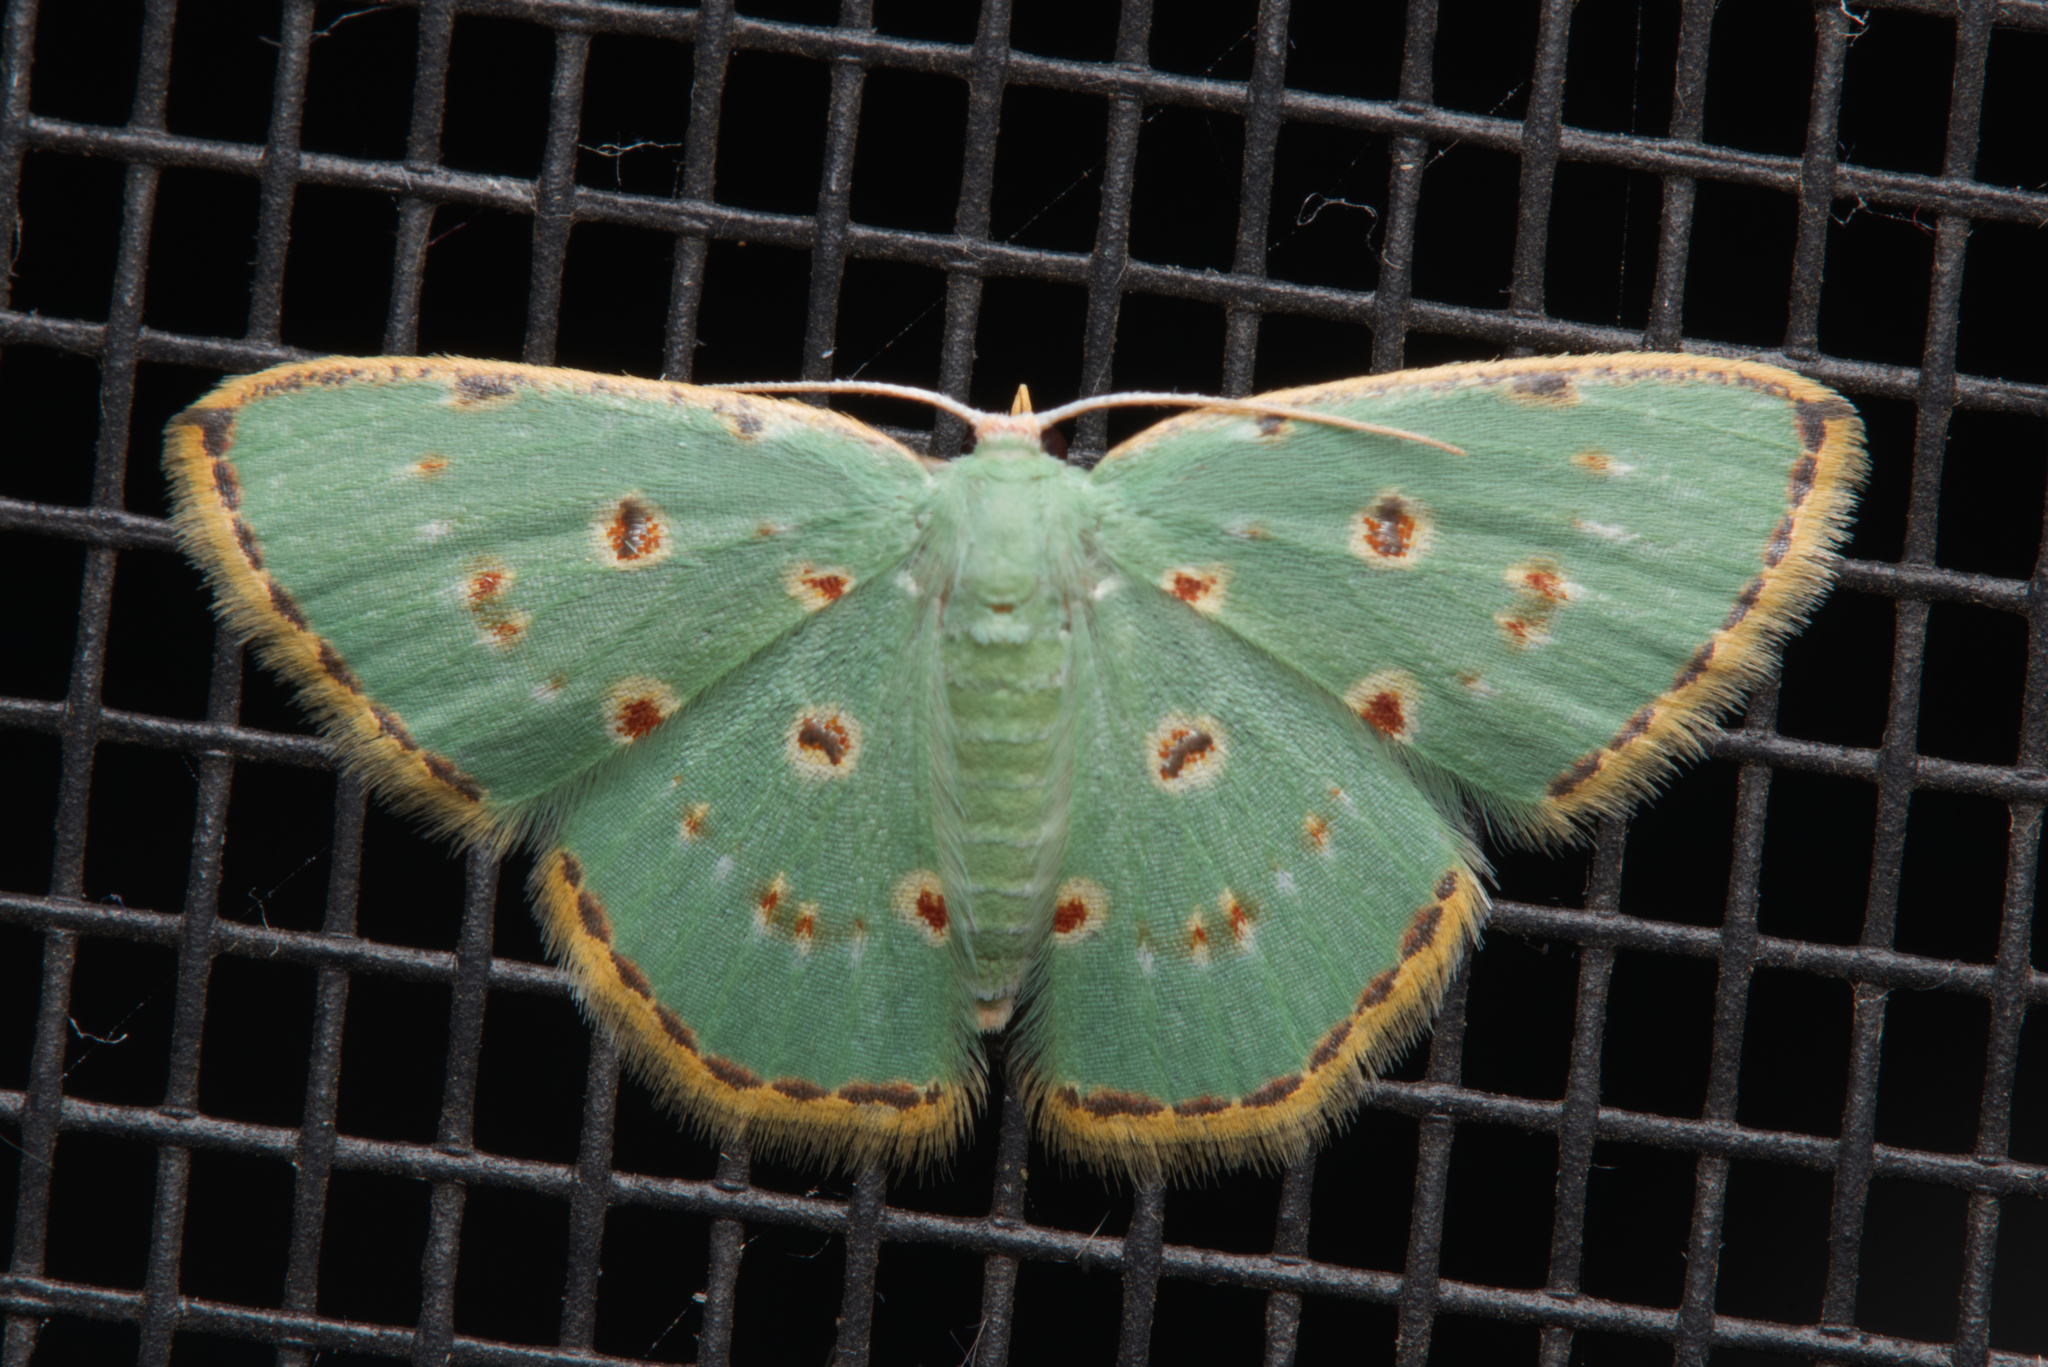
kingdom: Animalia
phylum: Arthropoda
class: Insecta
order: Lepidoptera
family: Geometridae
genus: Comostola
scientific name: Comostola laesaria
